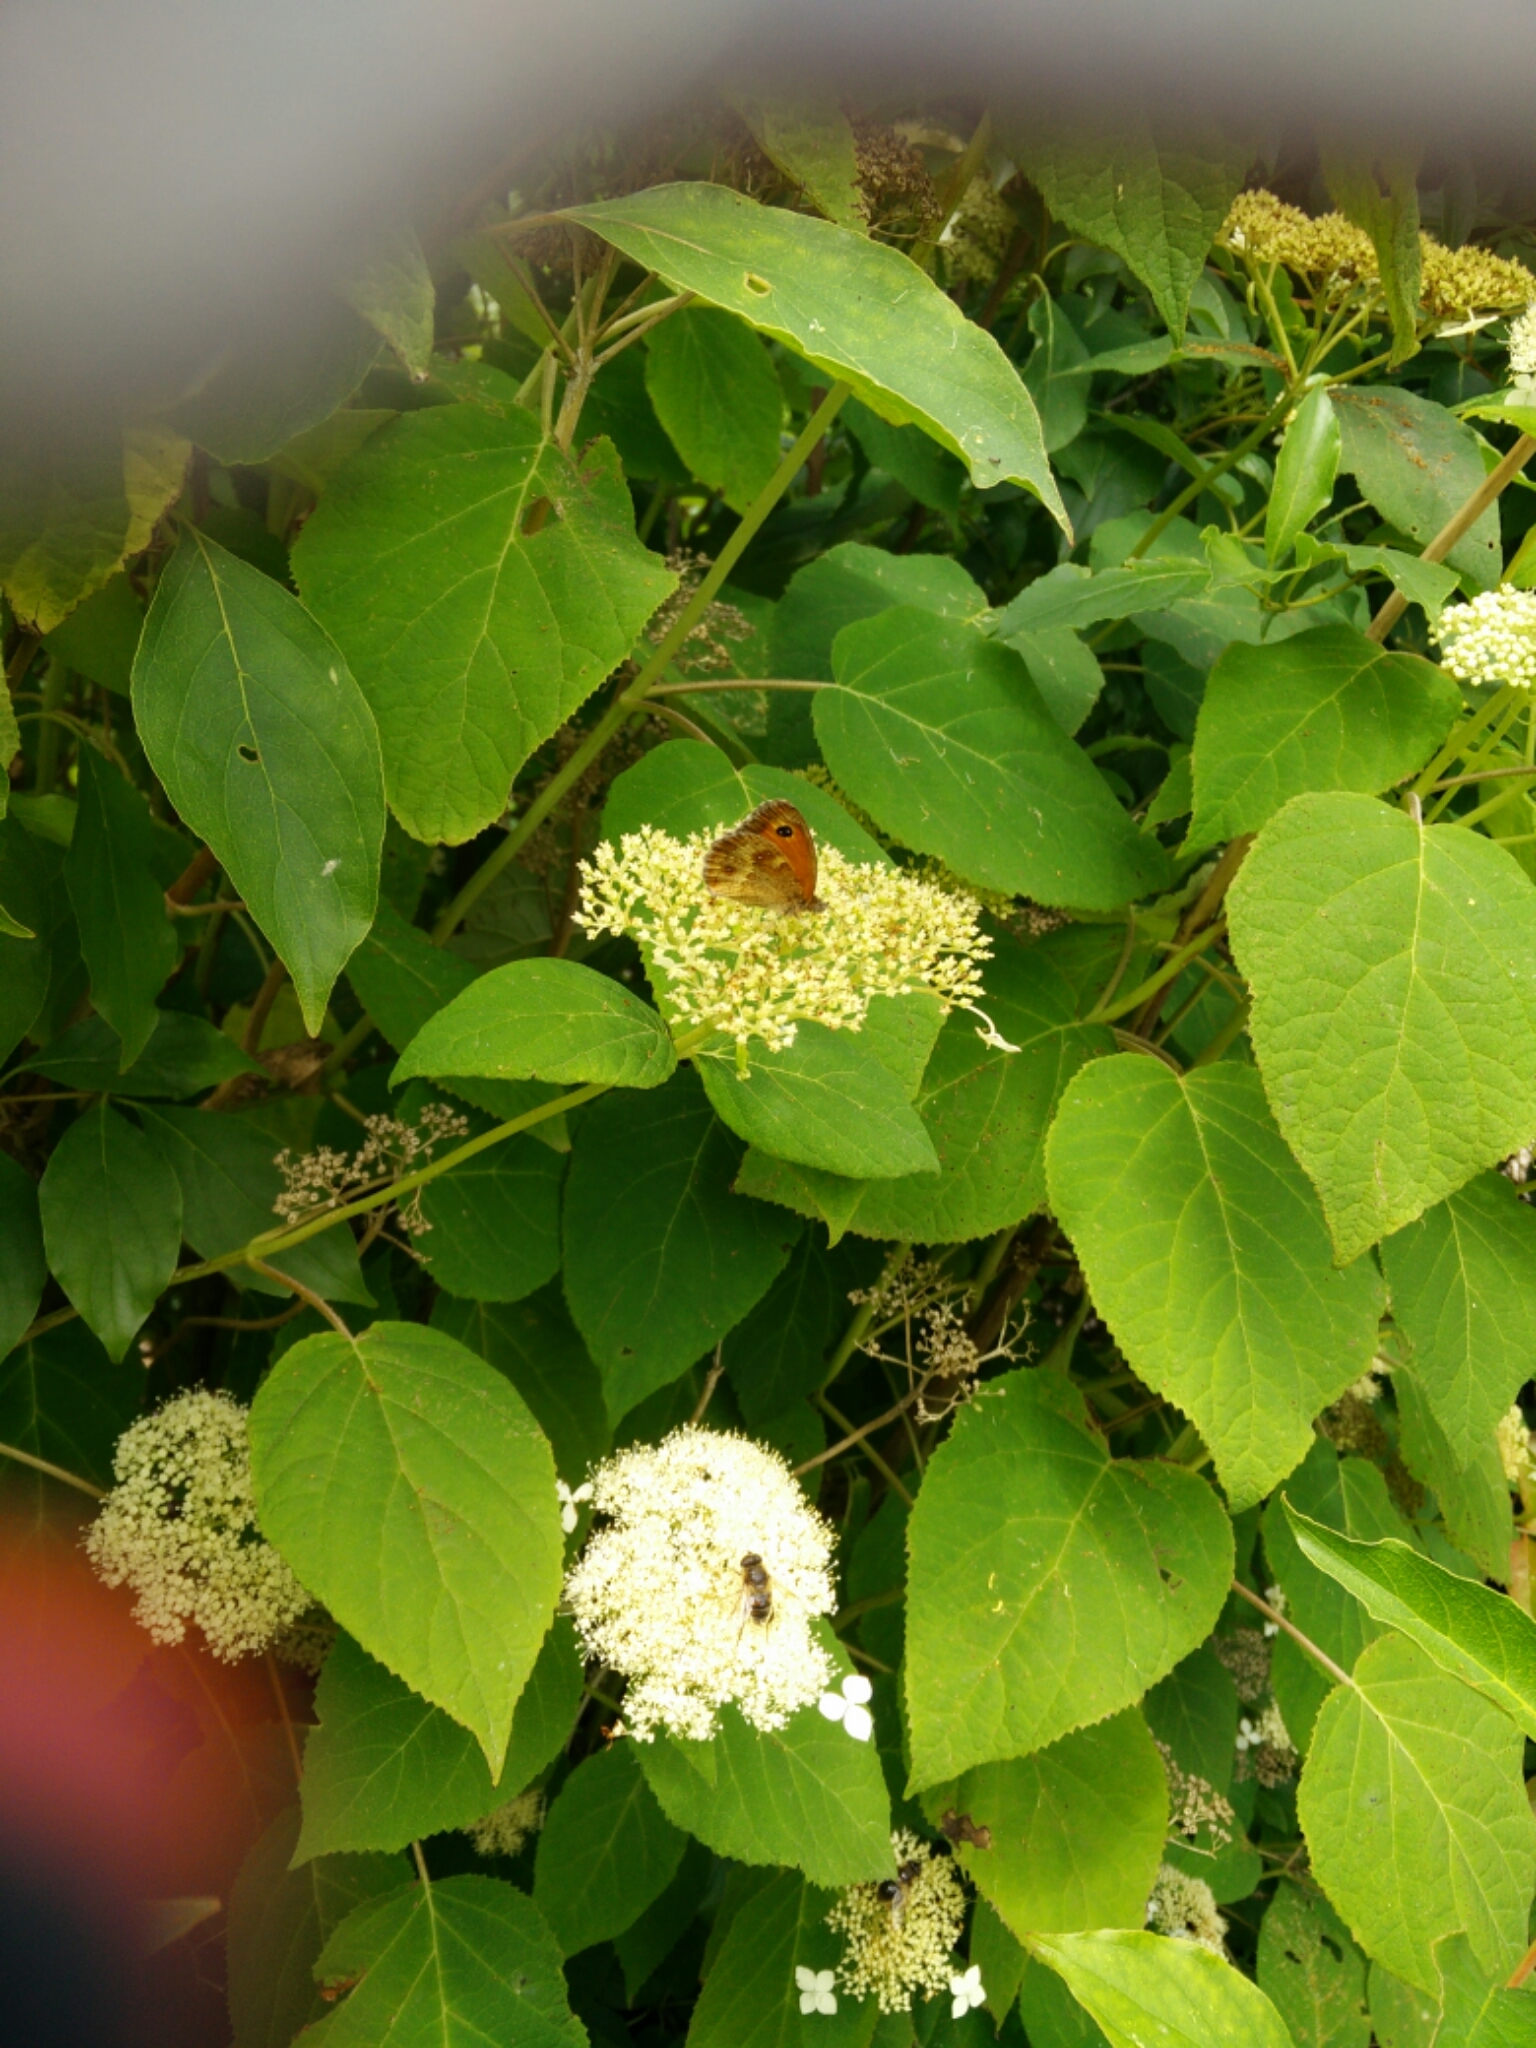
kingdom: Animalia
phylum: Arthropoda
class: Insecta
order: Lepidoptera
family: Nymphalidae
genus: Pyronia
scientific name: Pyronia tithonus
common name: Gatekeeper
